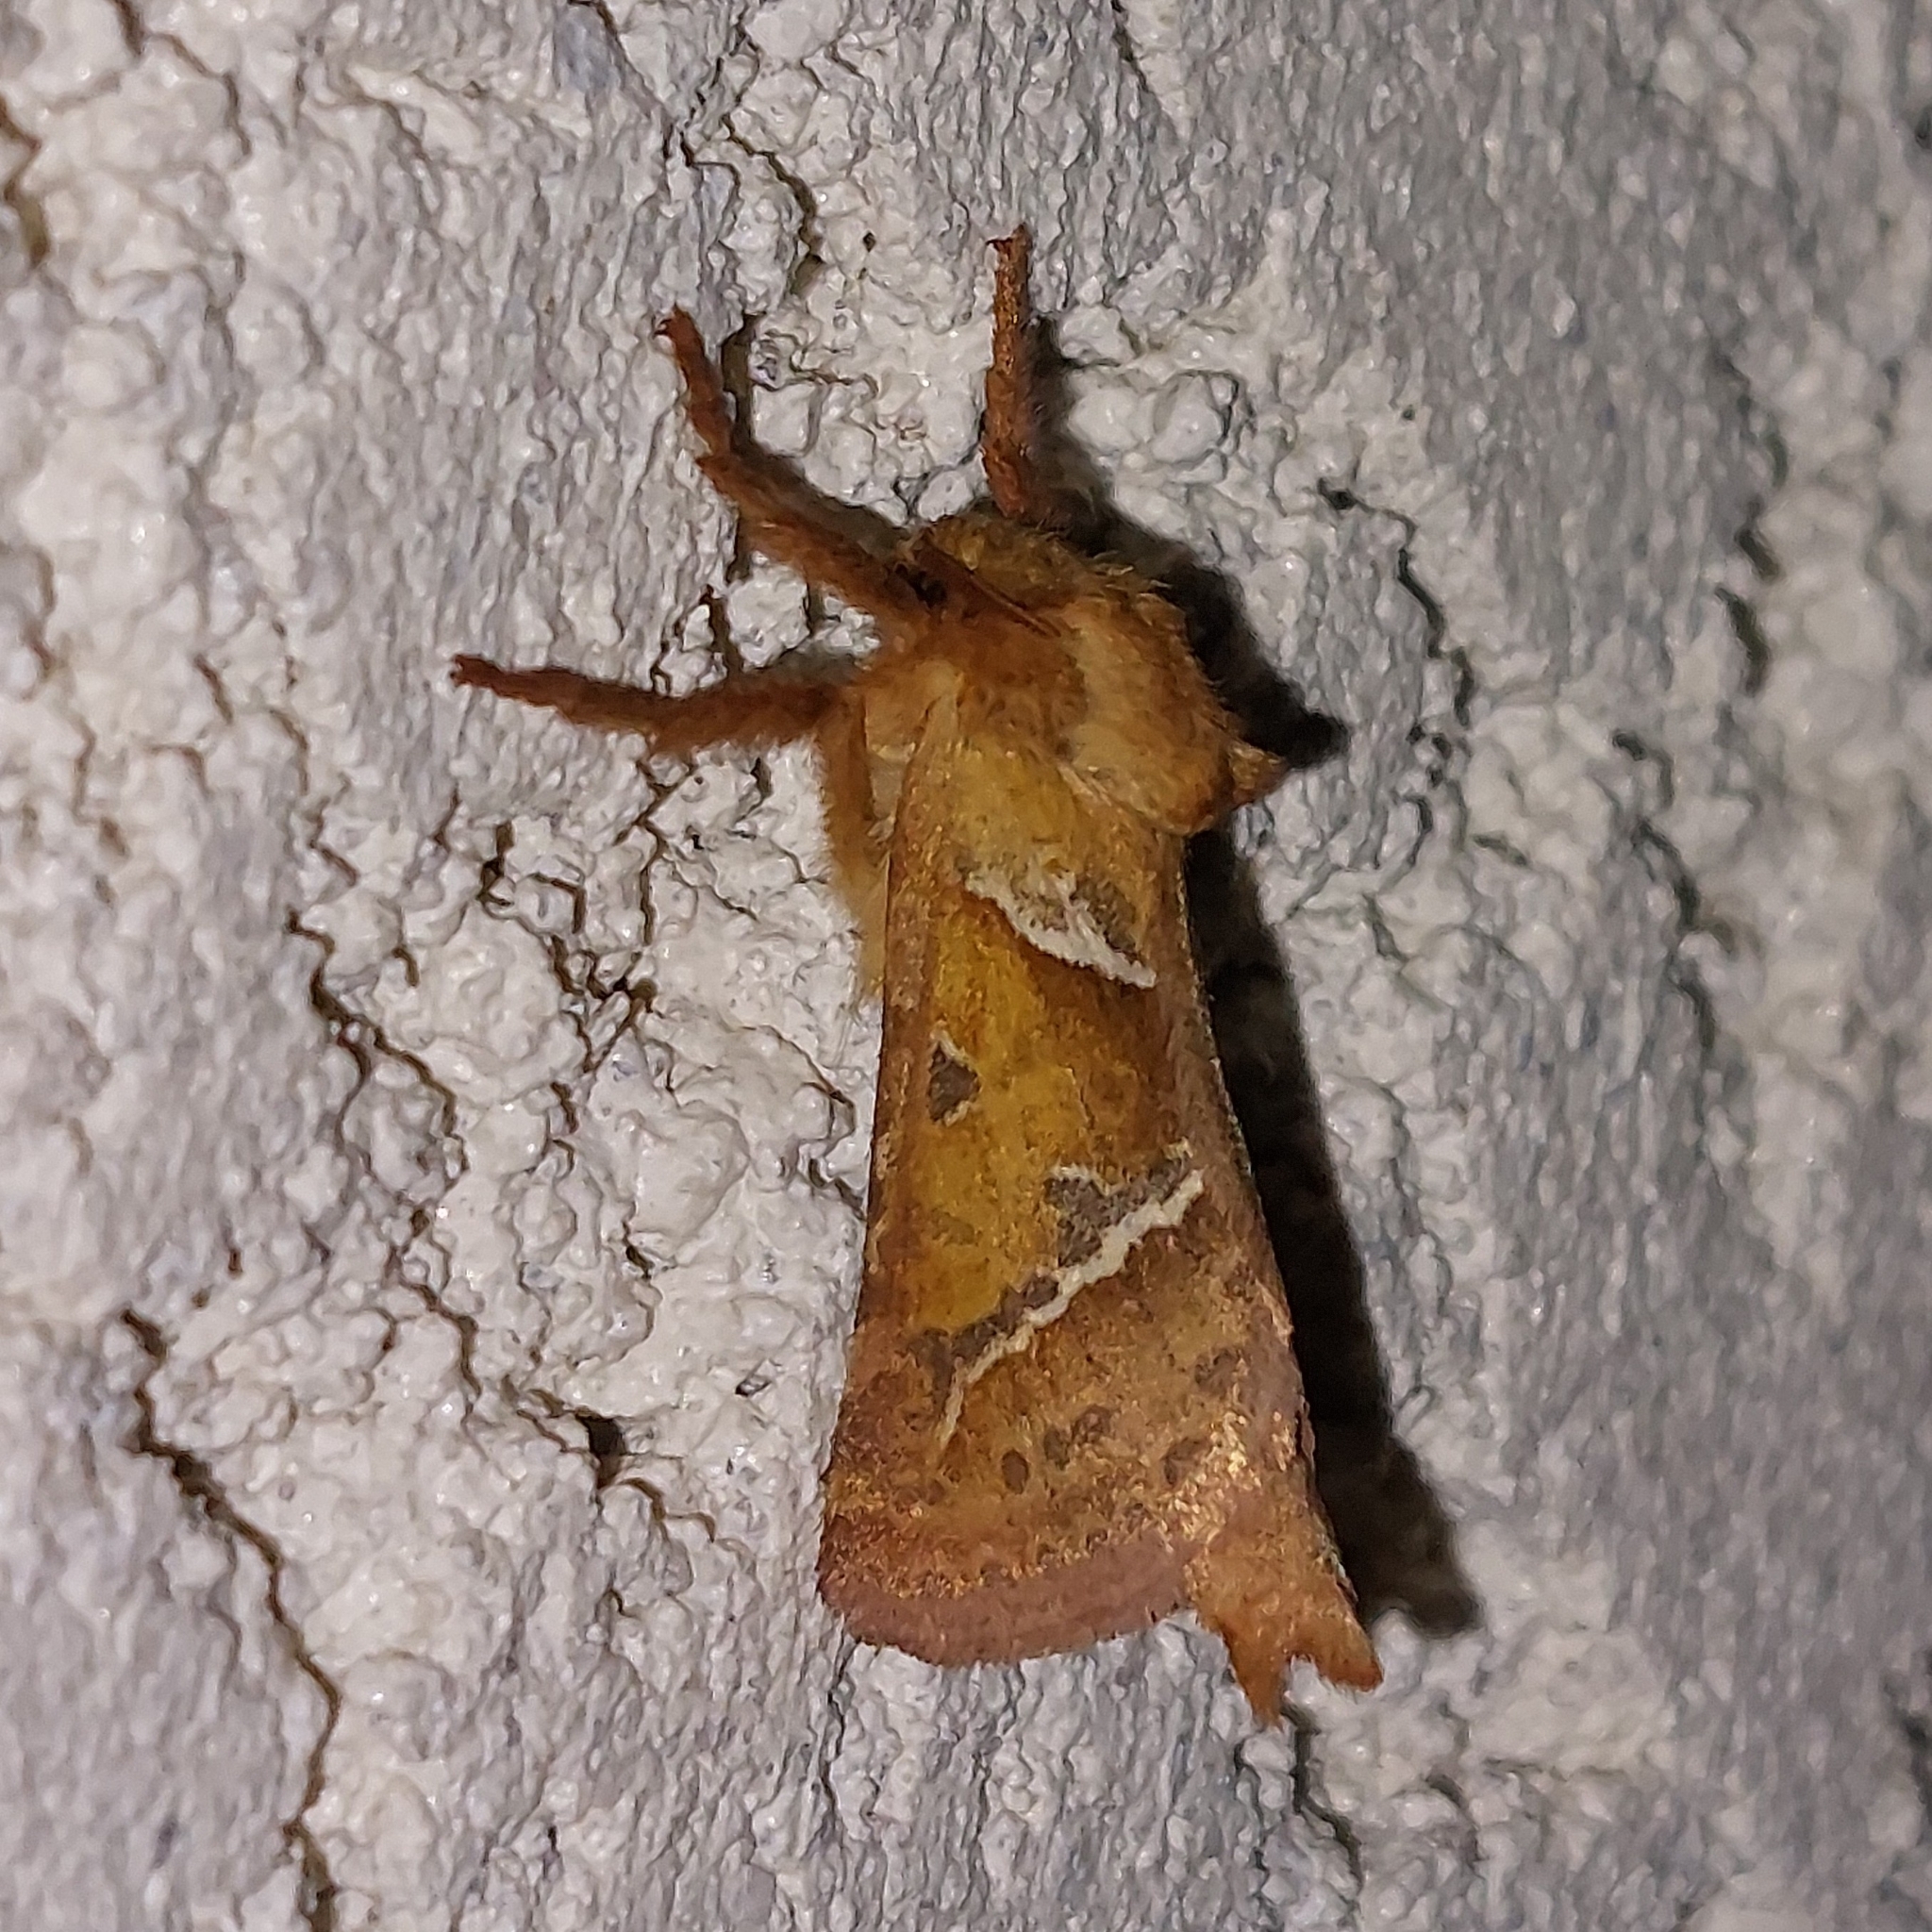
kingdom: Animalia
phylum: Arthropoda
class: Insecta
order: Lepidoptera
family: Hepialidae
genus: Triodia
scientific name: Triodia sylvina
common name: Orange swift
